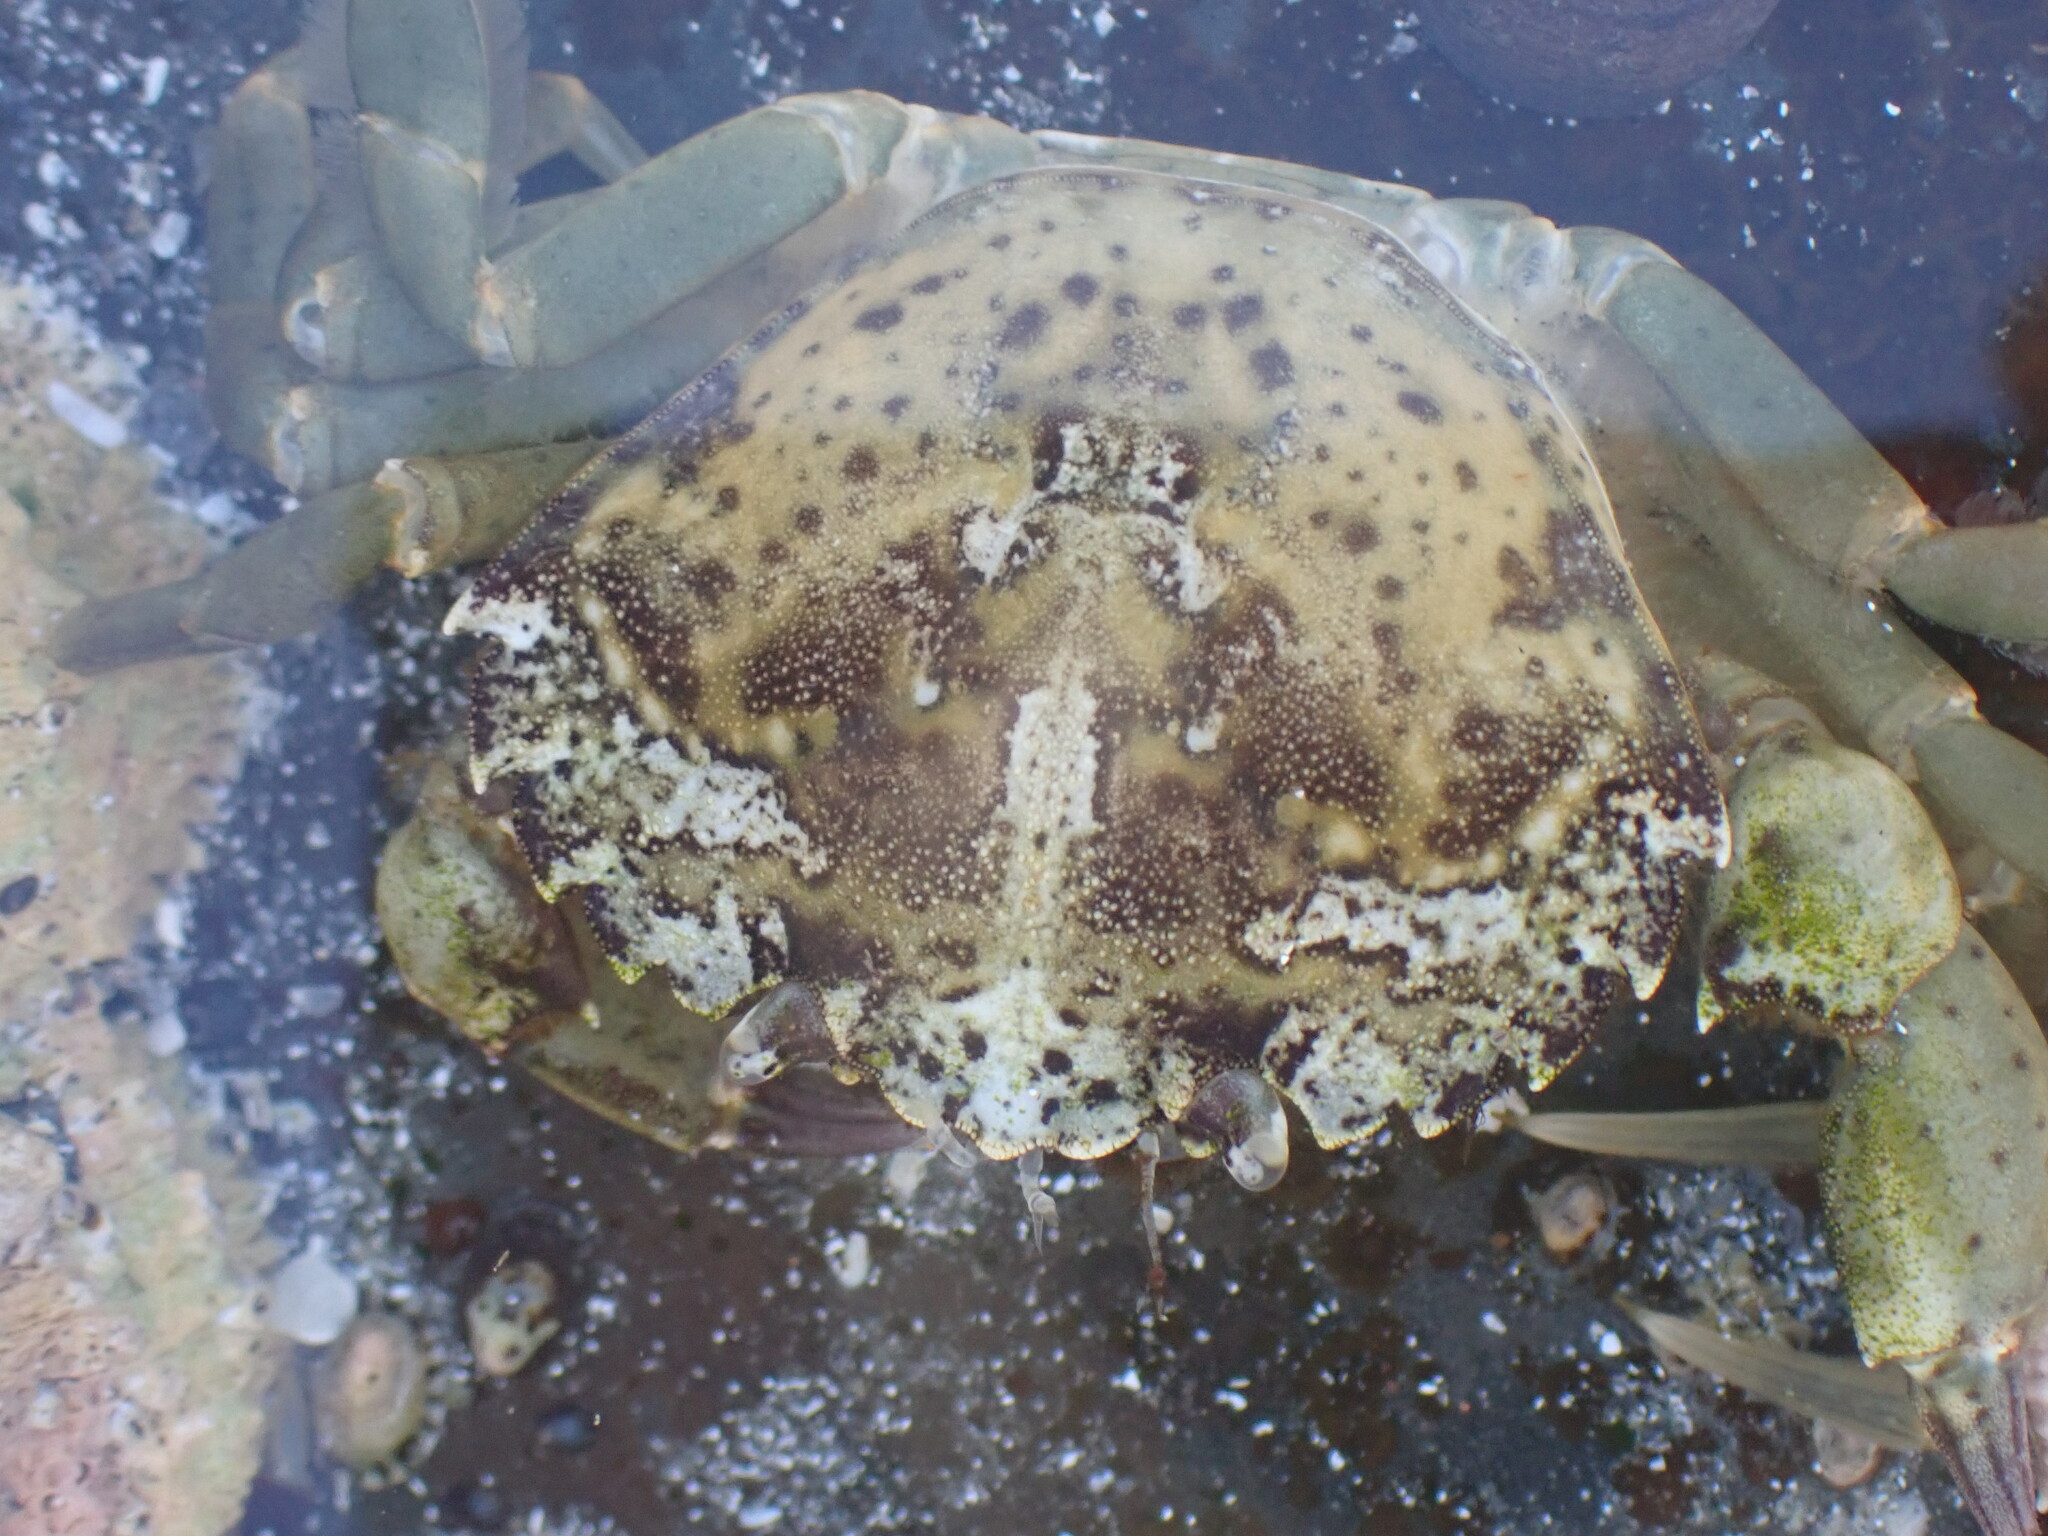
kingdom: Animalia
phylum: Arthropoda
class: Malacostraca
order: Decapoda
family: Carcinidae
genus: Carcinus
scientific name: Carcinus maenas
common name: European green crab
